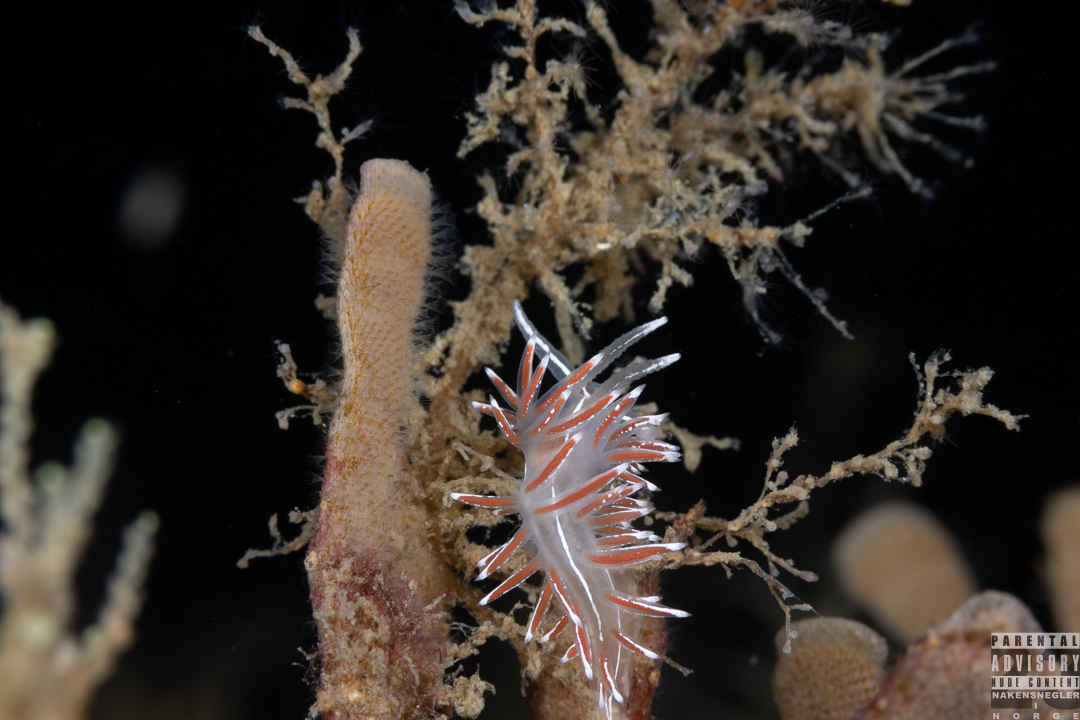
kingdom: Animalia
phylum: Mollusca
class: Gastropoda
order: Nudibranchia
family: Coryphellidae
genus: Coryphella
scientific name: Coryphella lineata
